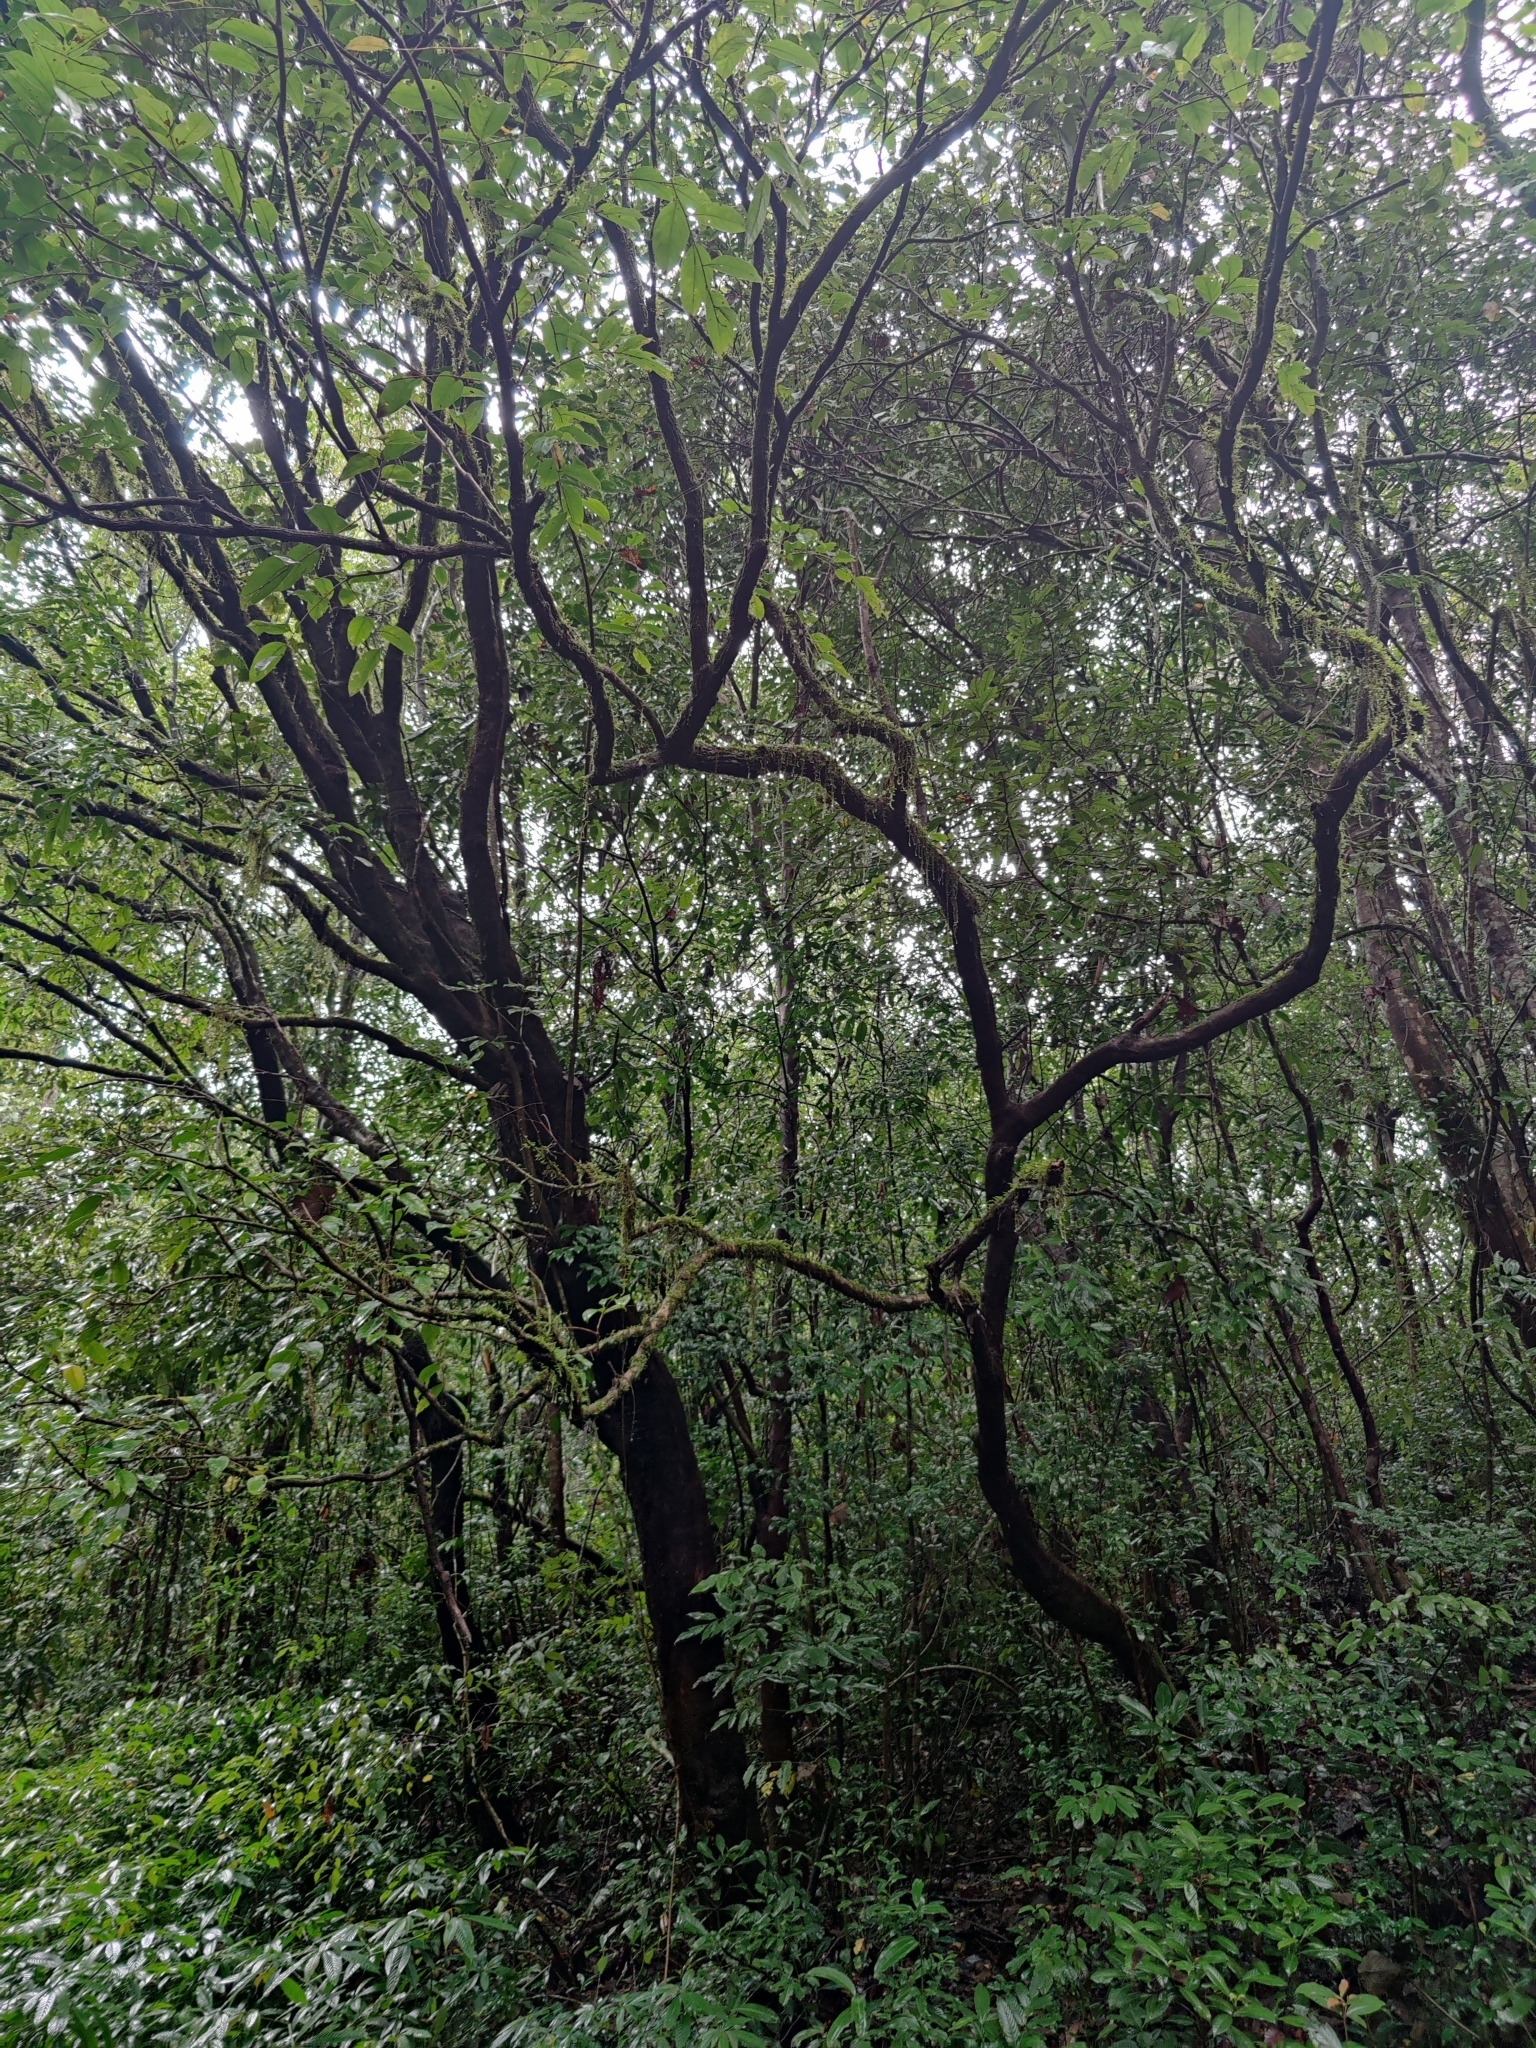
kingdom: Animalia
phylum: Arthropoda
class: Insecta
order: Lepidoptera
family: Nymphalidae
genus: Kallima
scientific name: Kallima horsfieldii
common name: Sahyadri blue oakleaf
